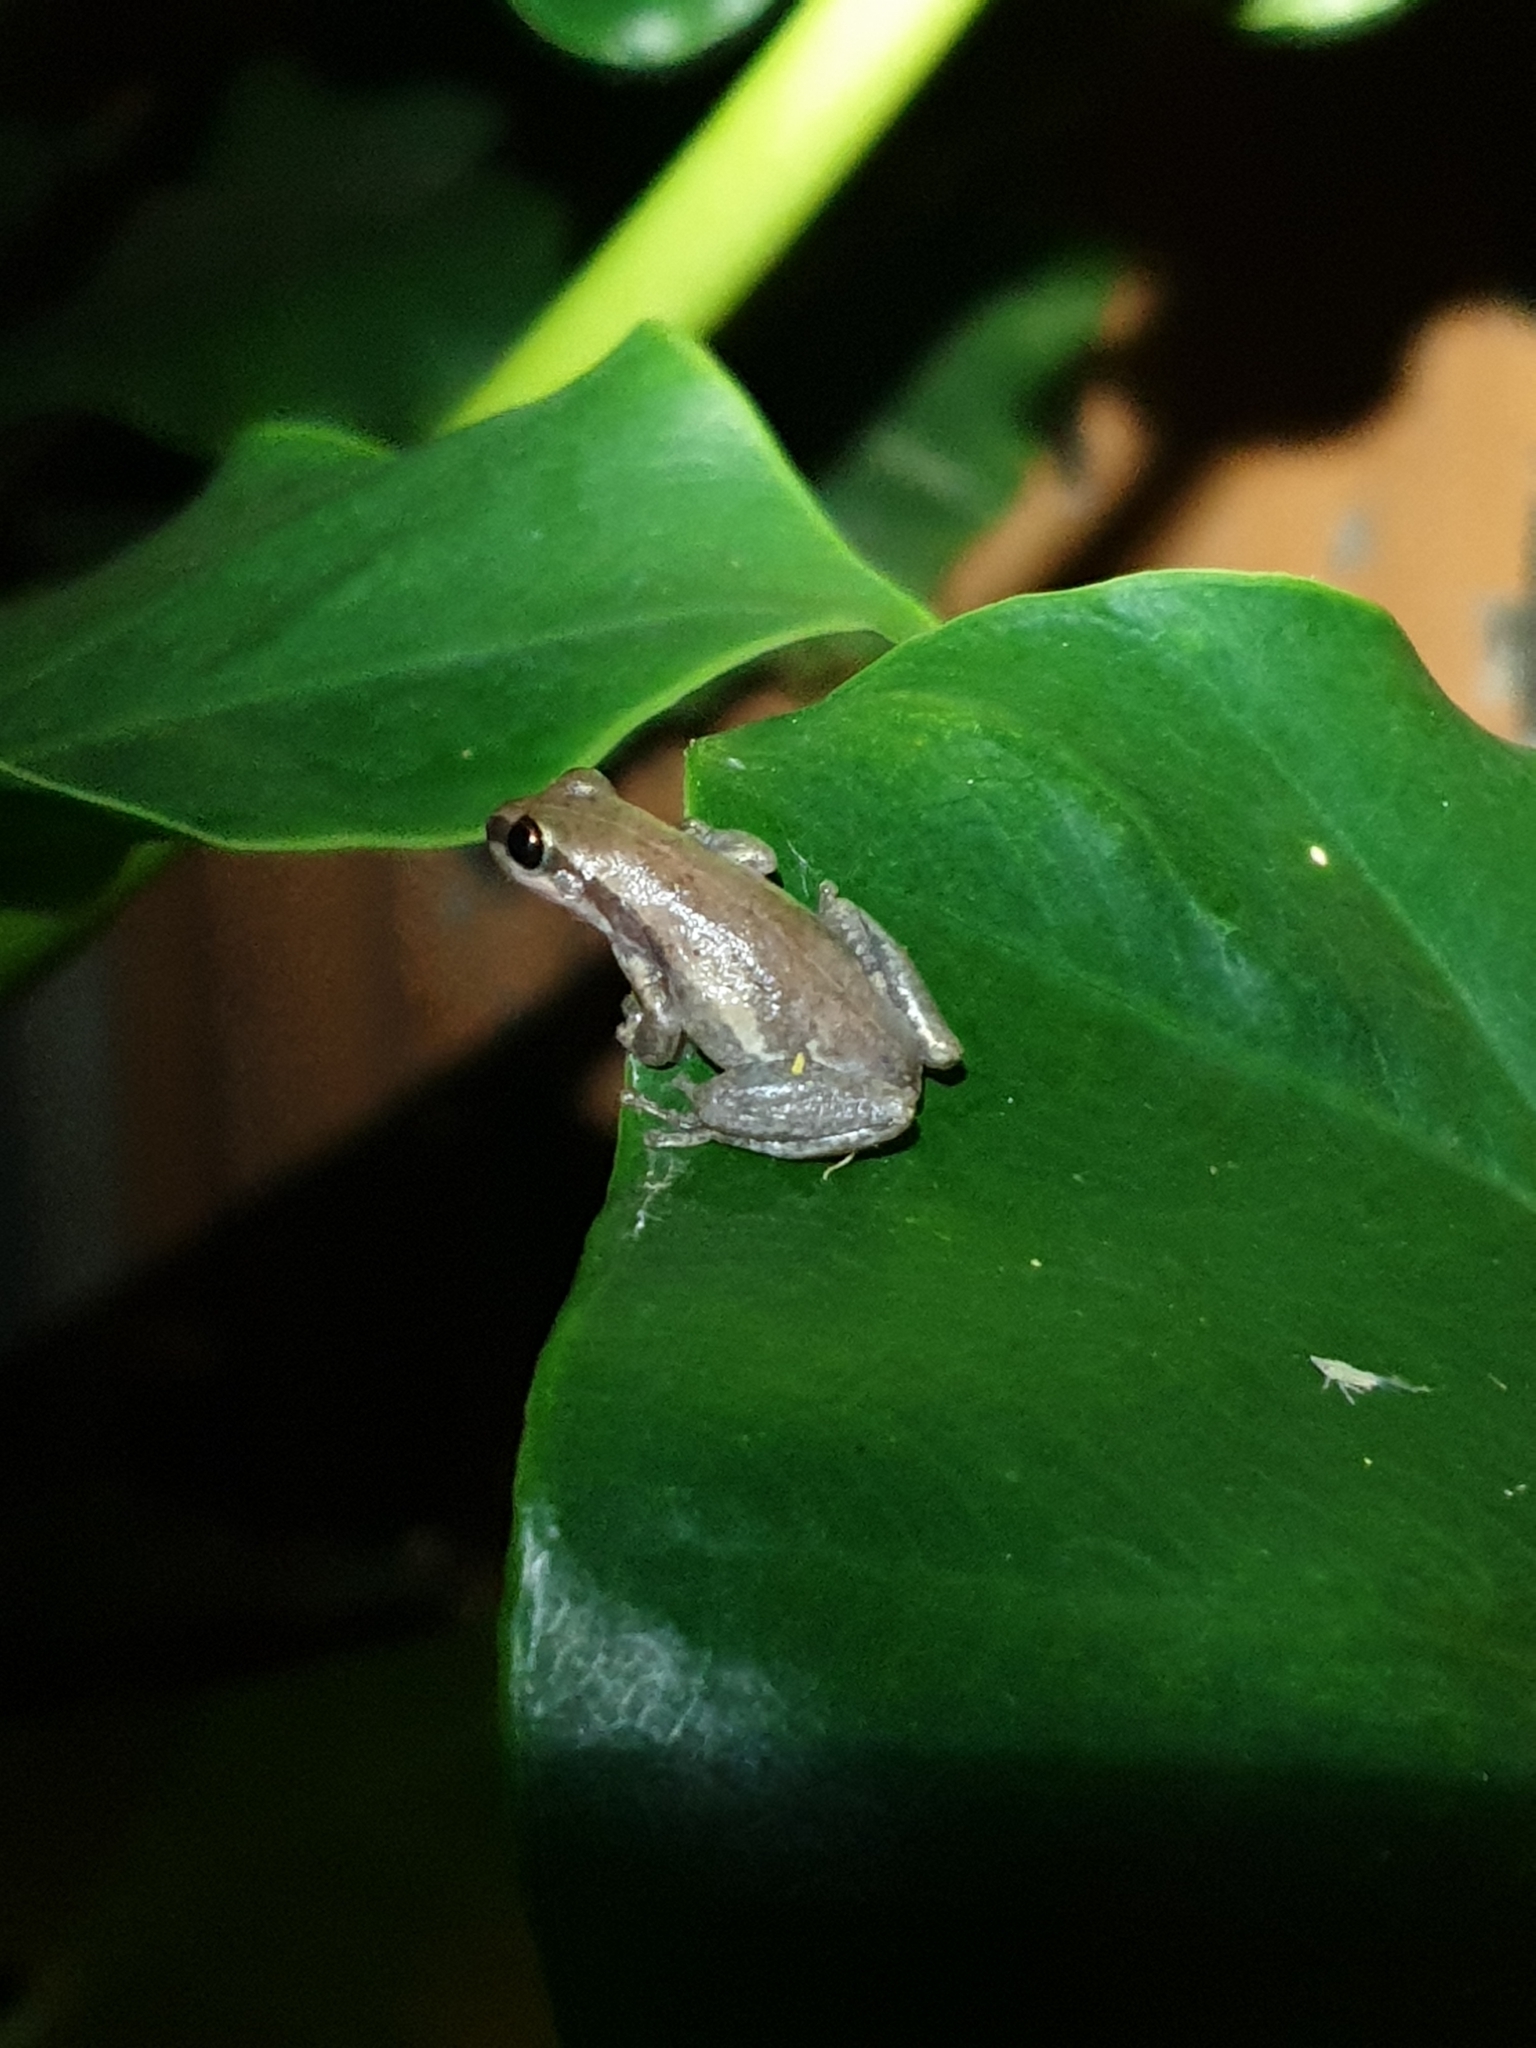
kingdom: Animalia
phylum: Chordata
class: Amphibia
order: Anura
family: Pelodryadidae
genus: Litoria
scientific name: Litoria rubella
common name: Desert tree frog
